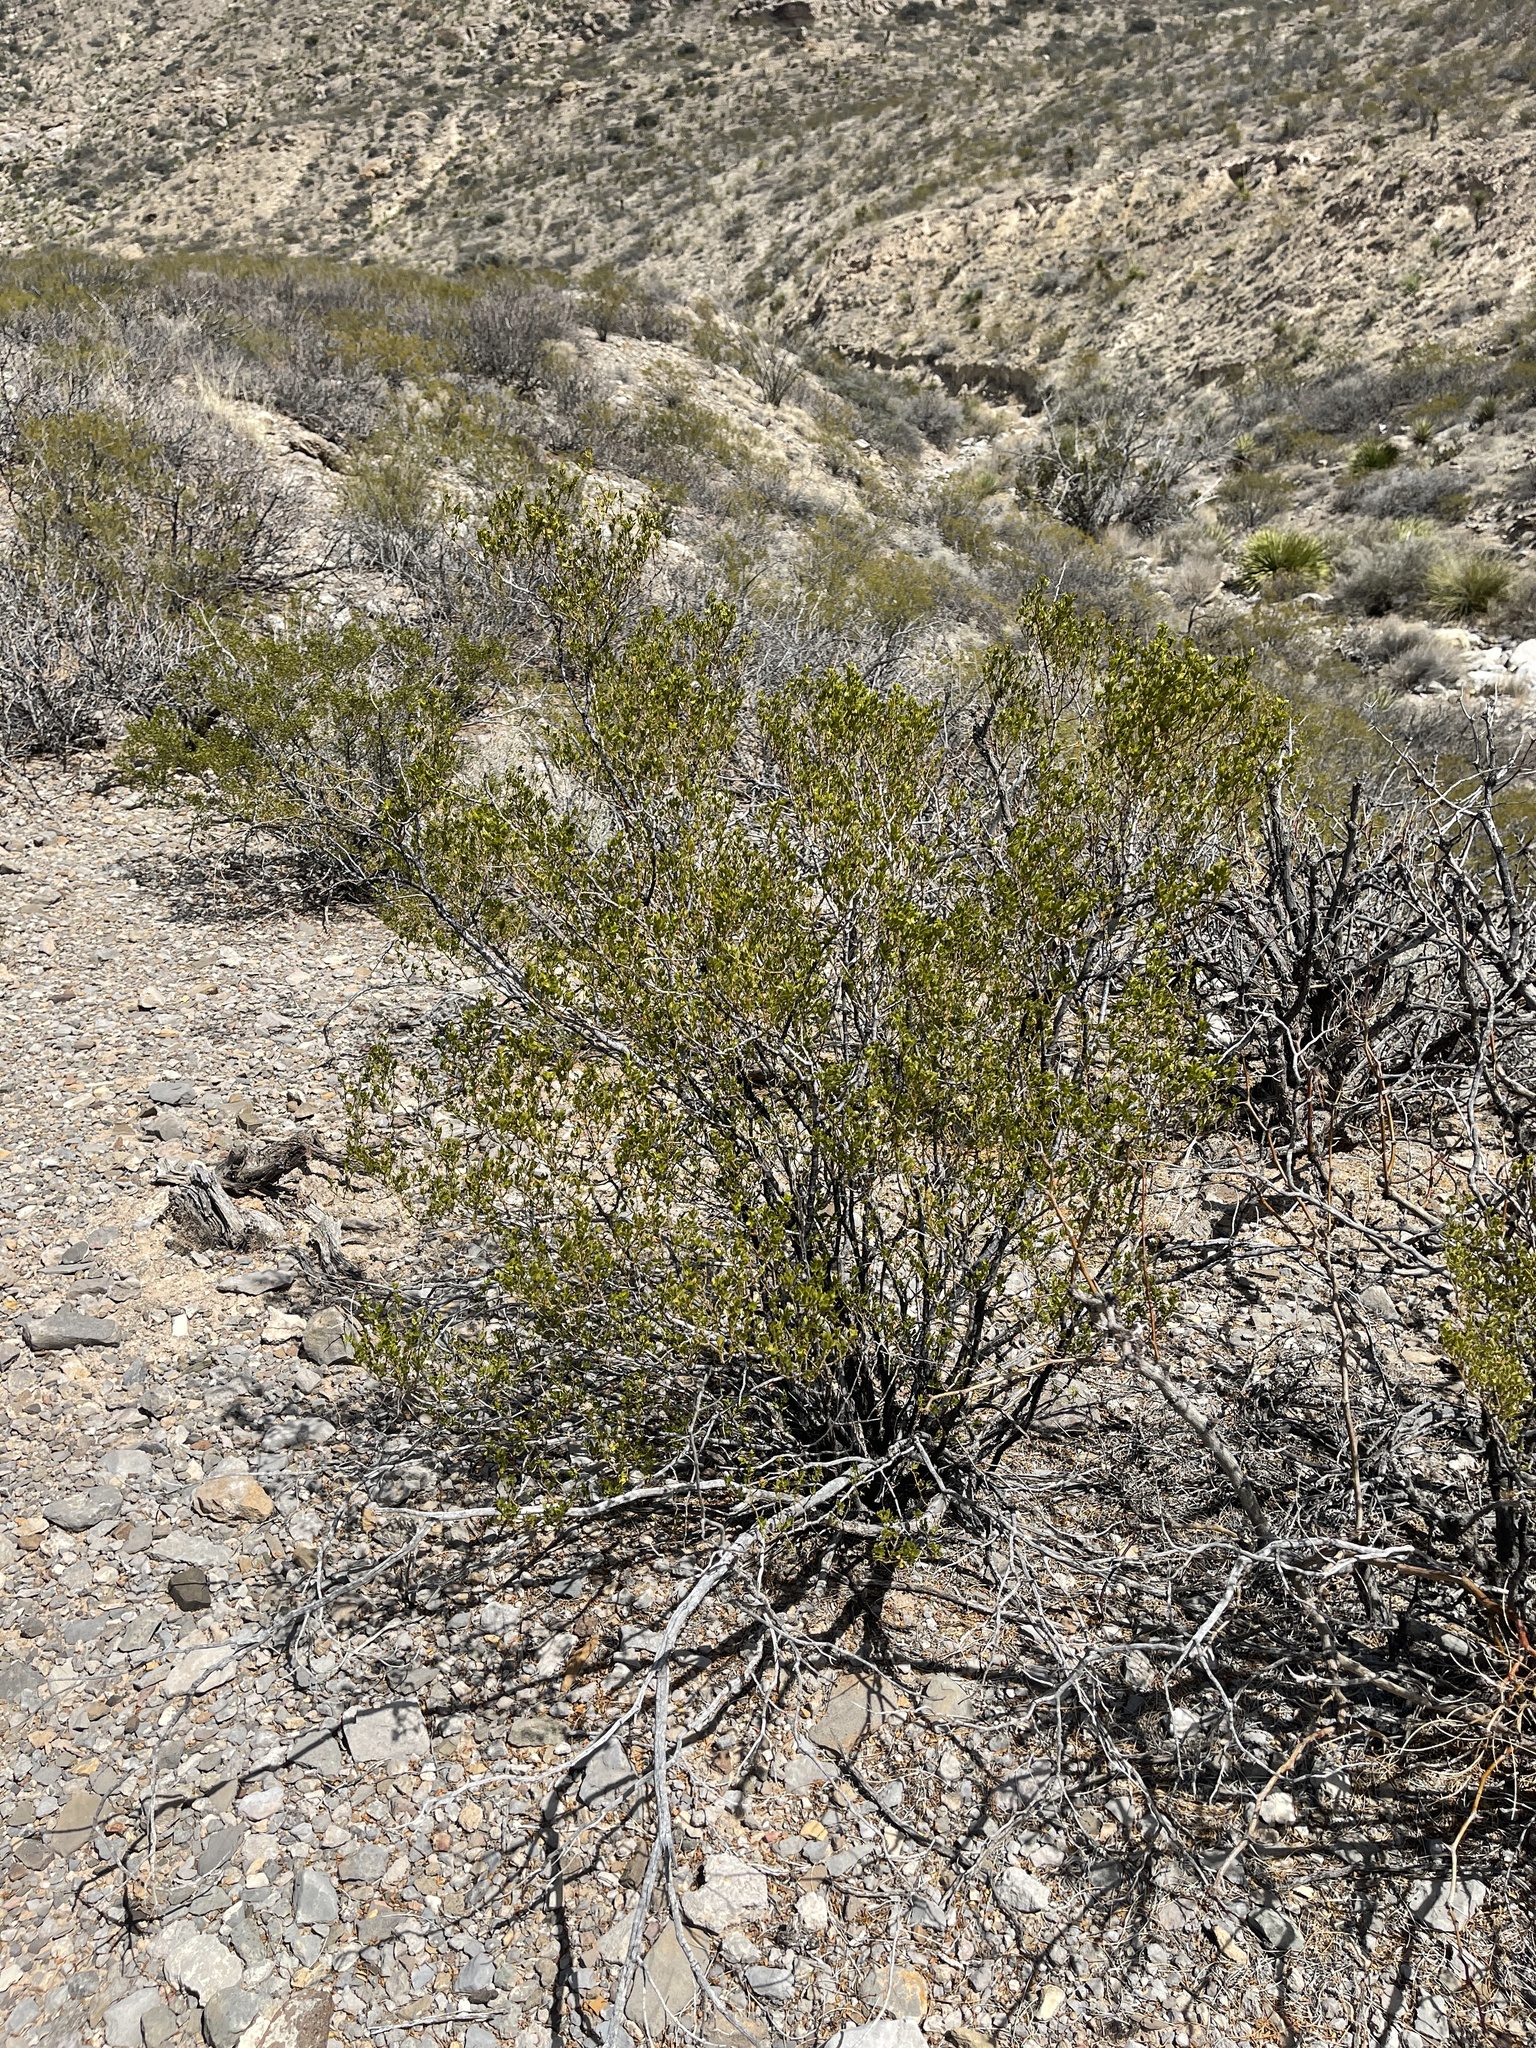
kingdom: Plantae
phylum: Tracheophyta
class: Magnoliopsida
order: Zygophyllales
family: Zygophyllaceae
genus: Larrea
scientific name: Larrea tridentata
